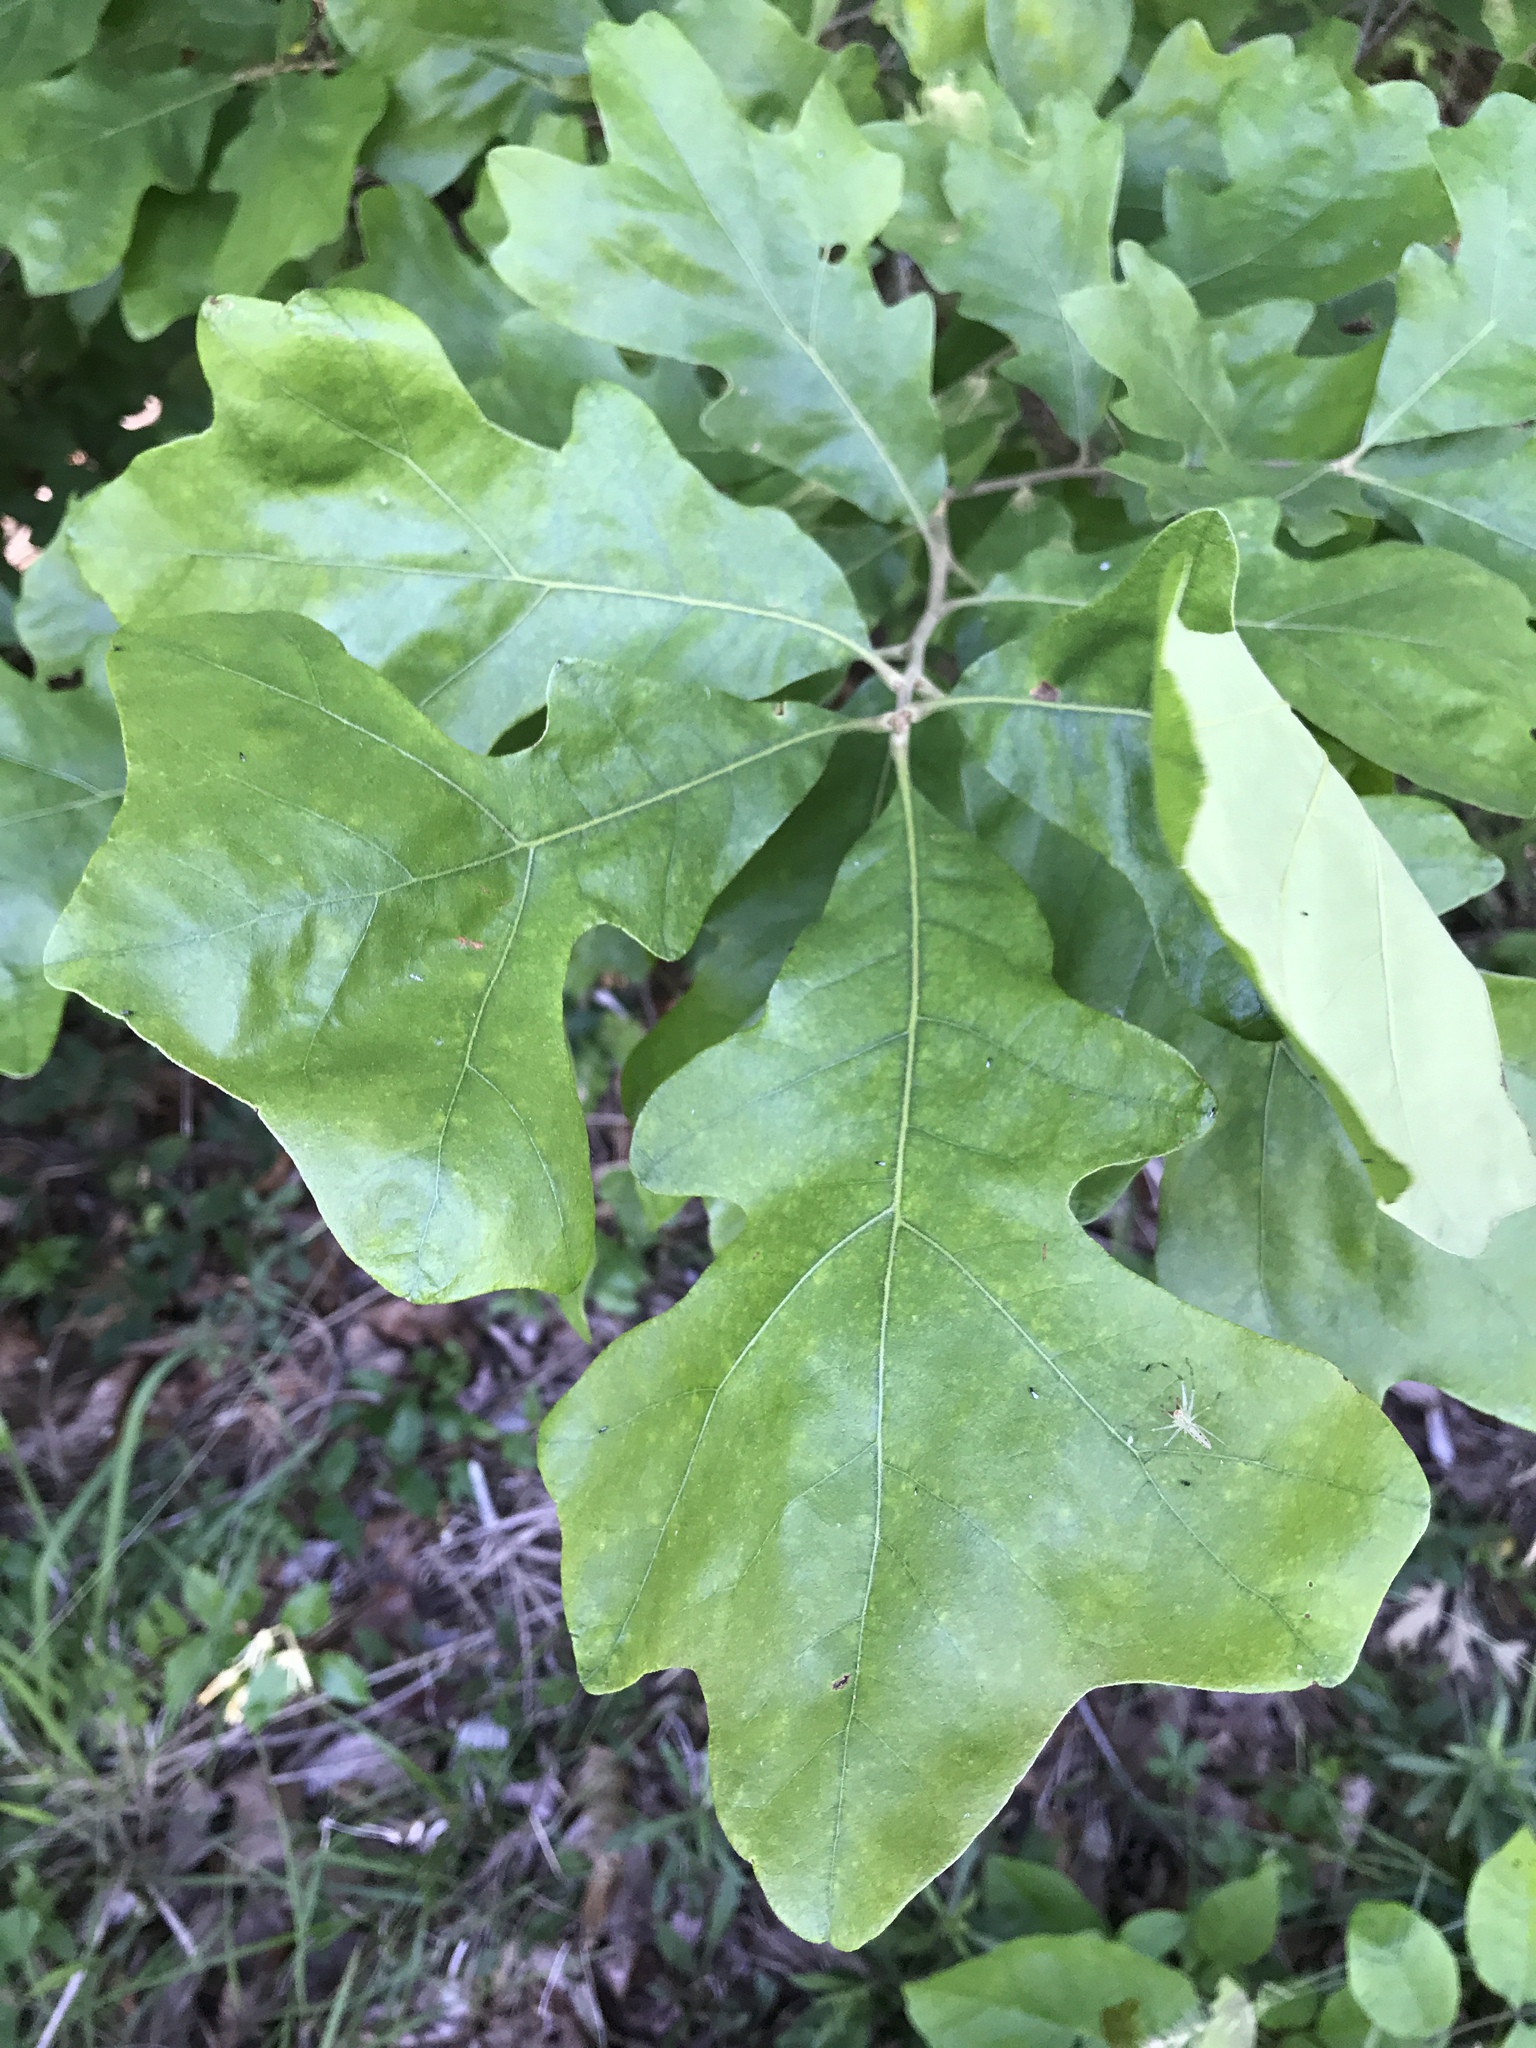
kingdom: Plantae
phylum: Tracheophyta
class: Magnoliopsida
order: Fagales
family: Fagaceae
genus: Quercus
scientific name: Quercus stellata
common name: Post oak
